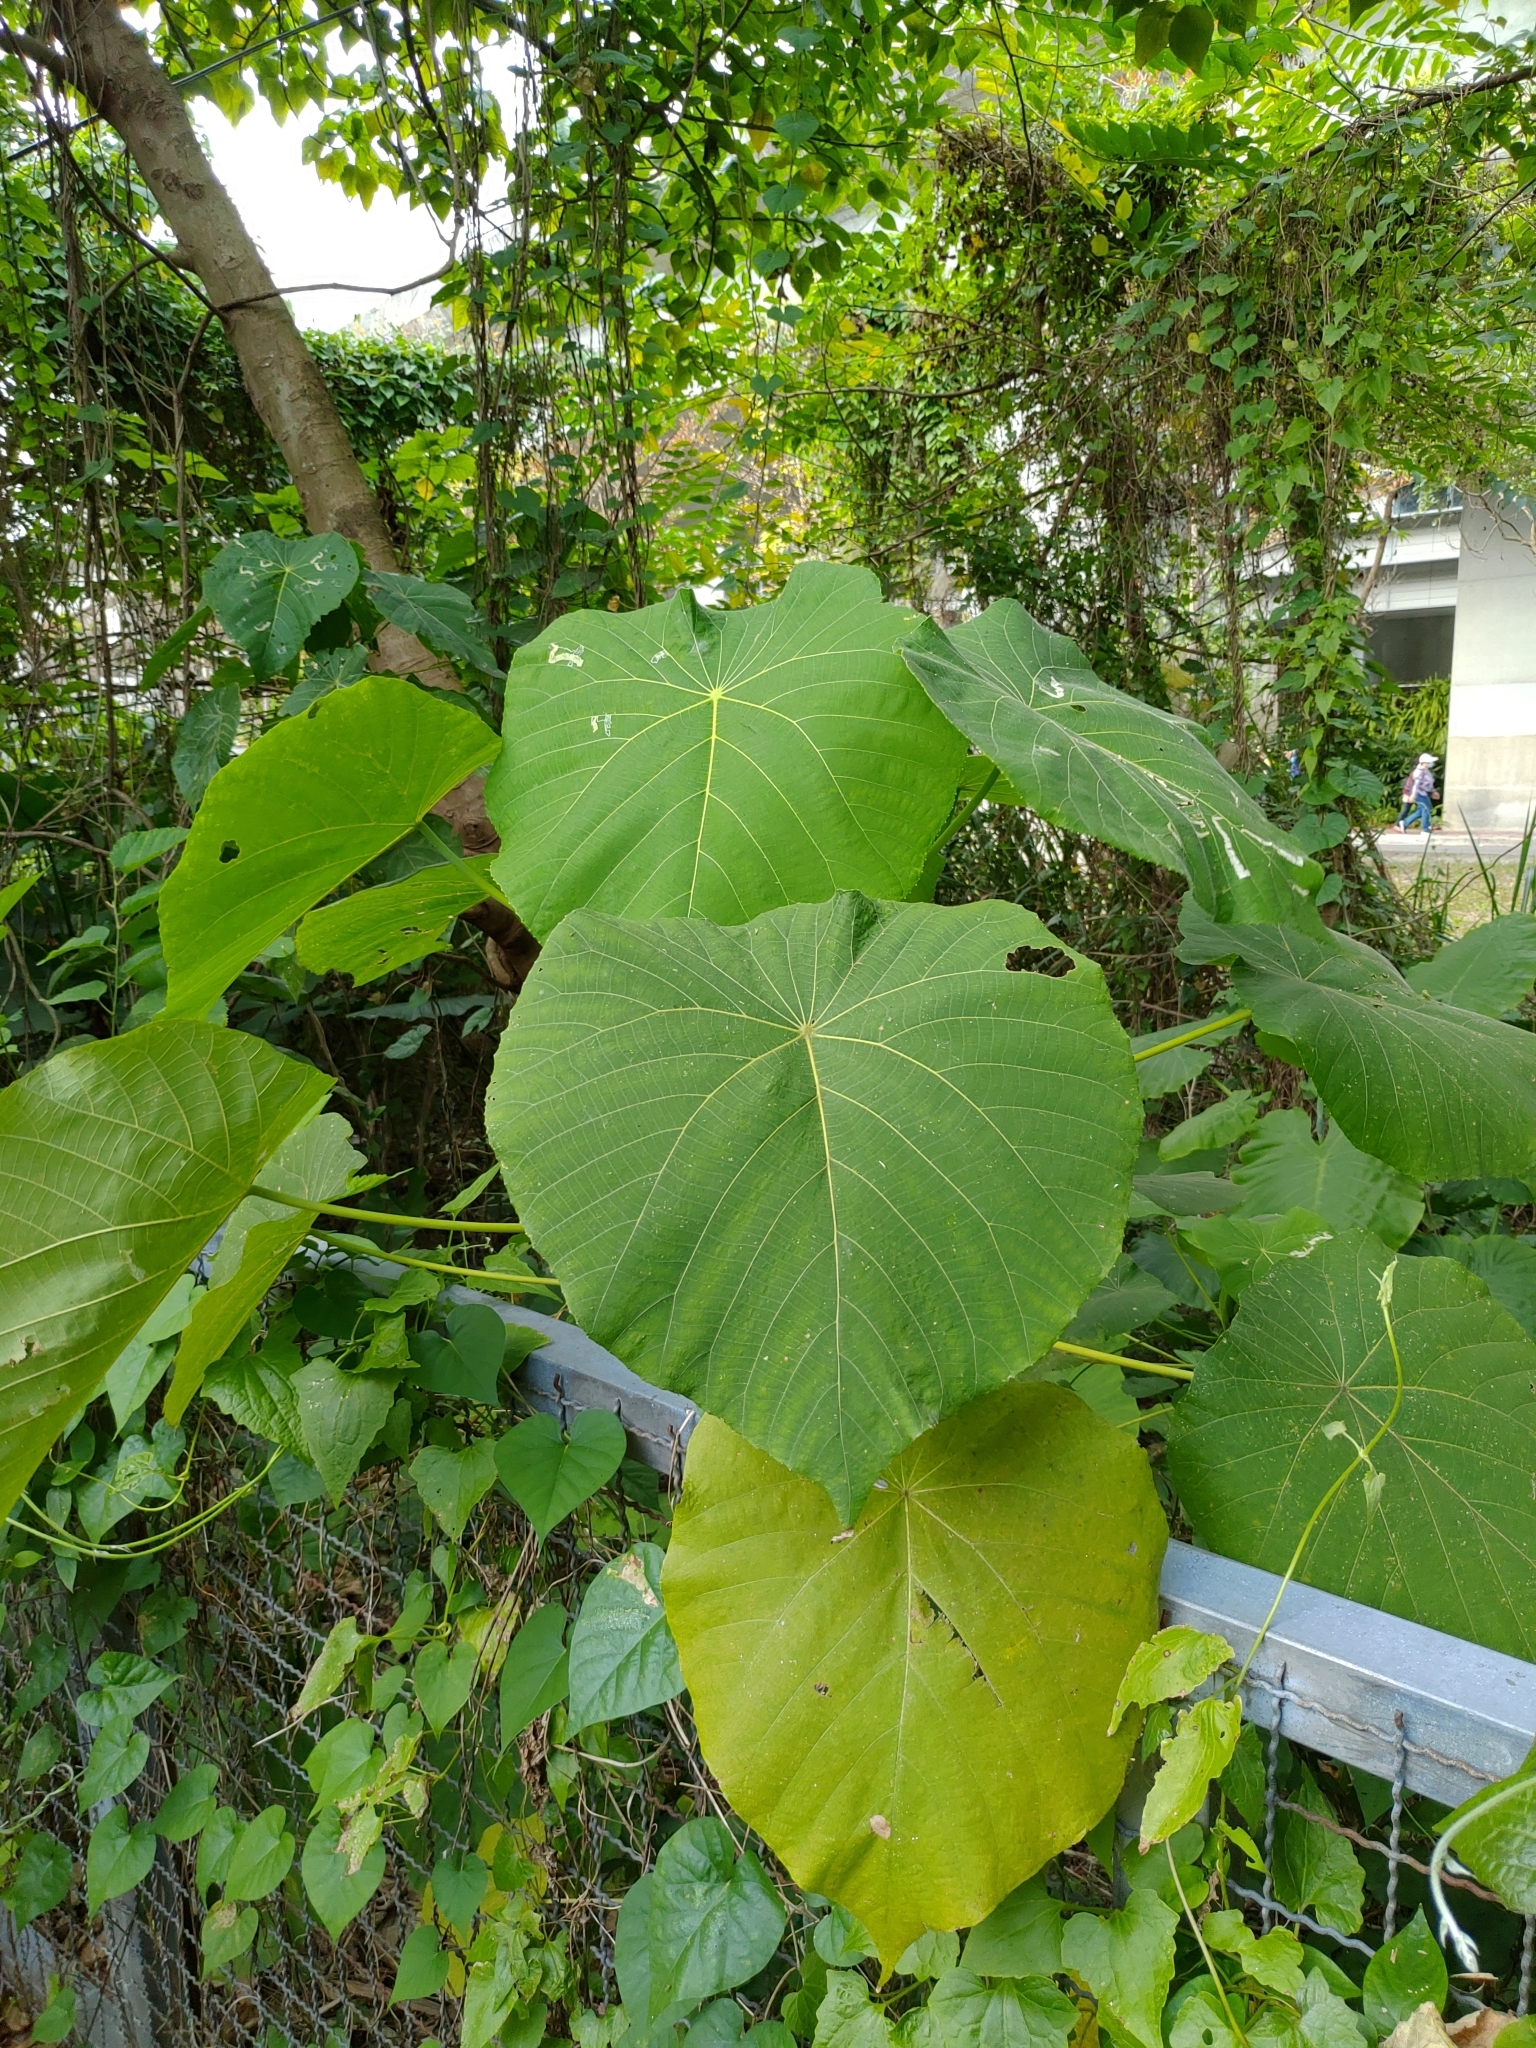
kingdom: Plantae
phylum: Tracheophyta
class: Magnoliopsida
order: Malpighiales
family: Euphorbiaceae
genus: Macaranga
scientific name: Macaranga tanarius
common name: Parasol leaf tree
